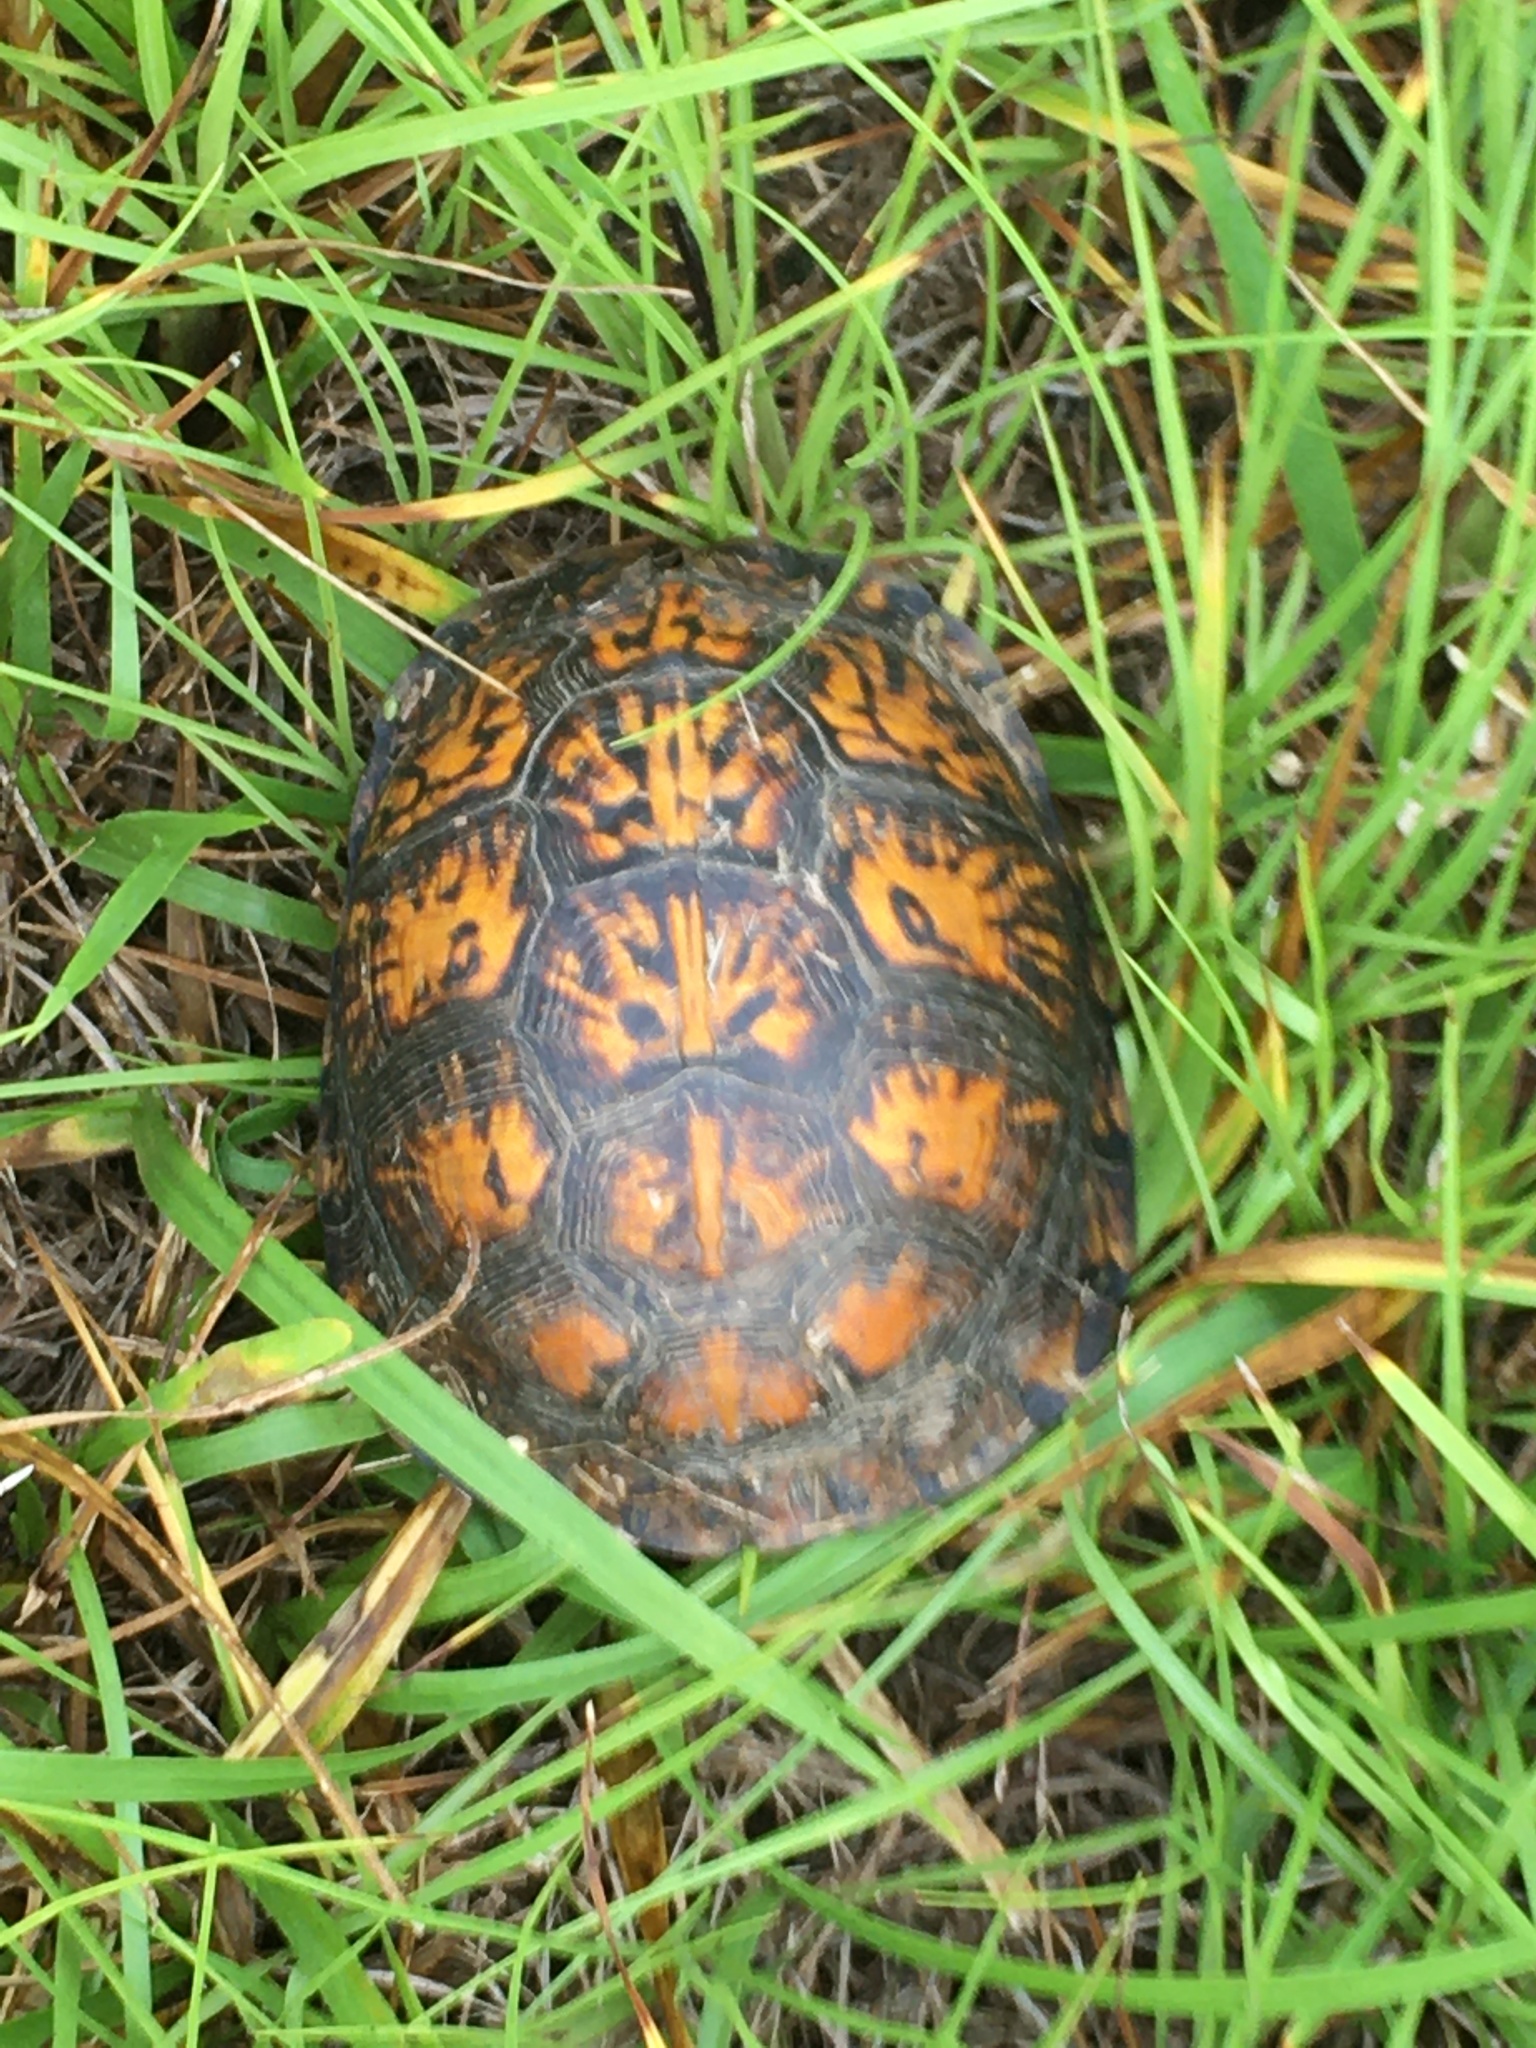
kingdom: Animalia
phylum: Chordata
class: Testudines
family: Emydidae
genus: Terrapene
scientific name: Terrapene carolina
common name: Common box turtle
